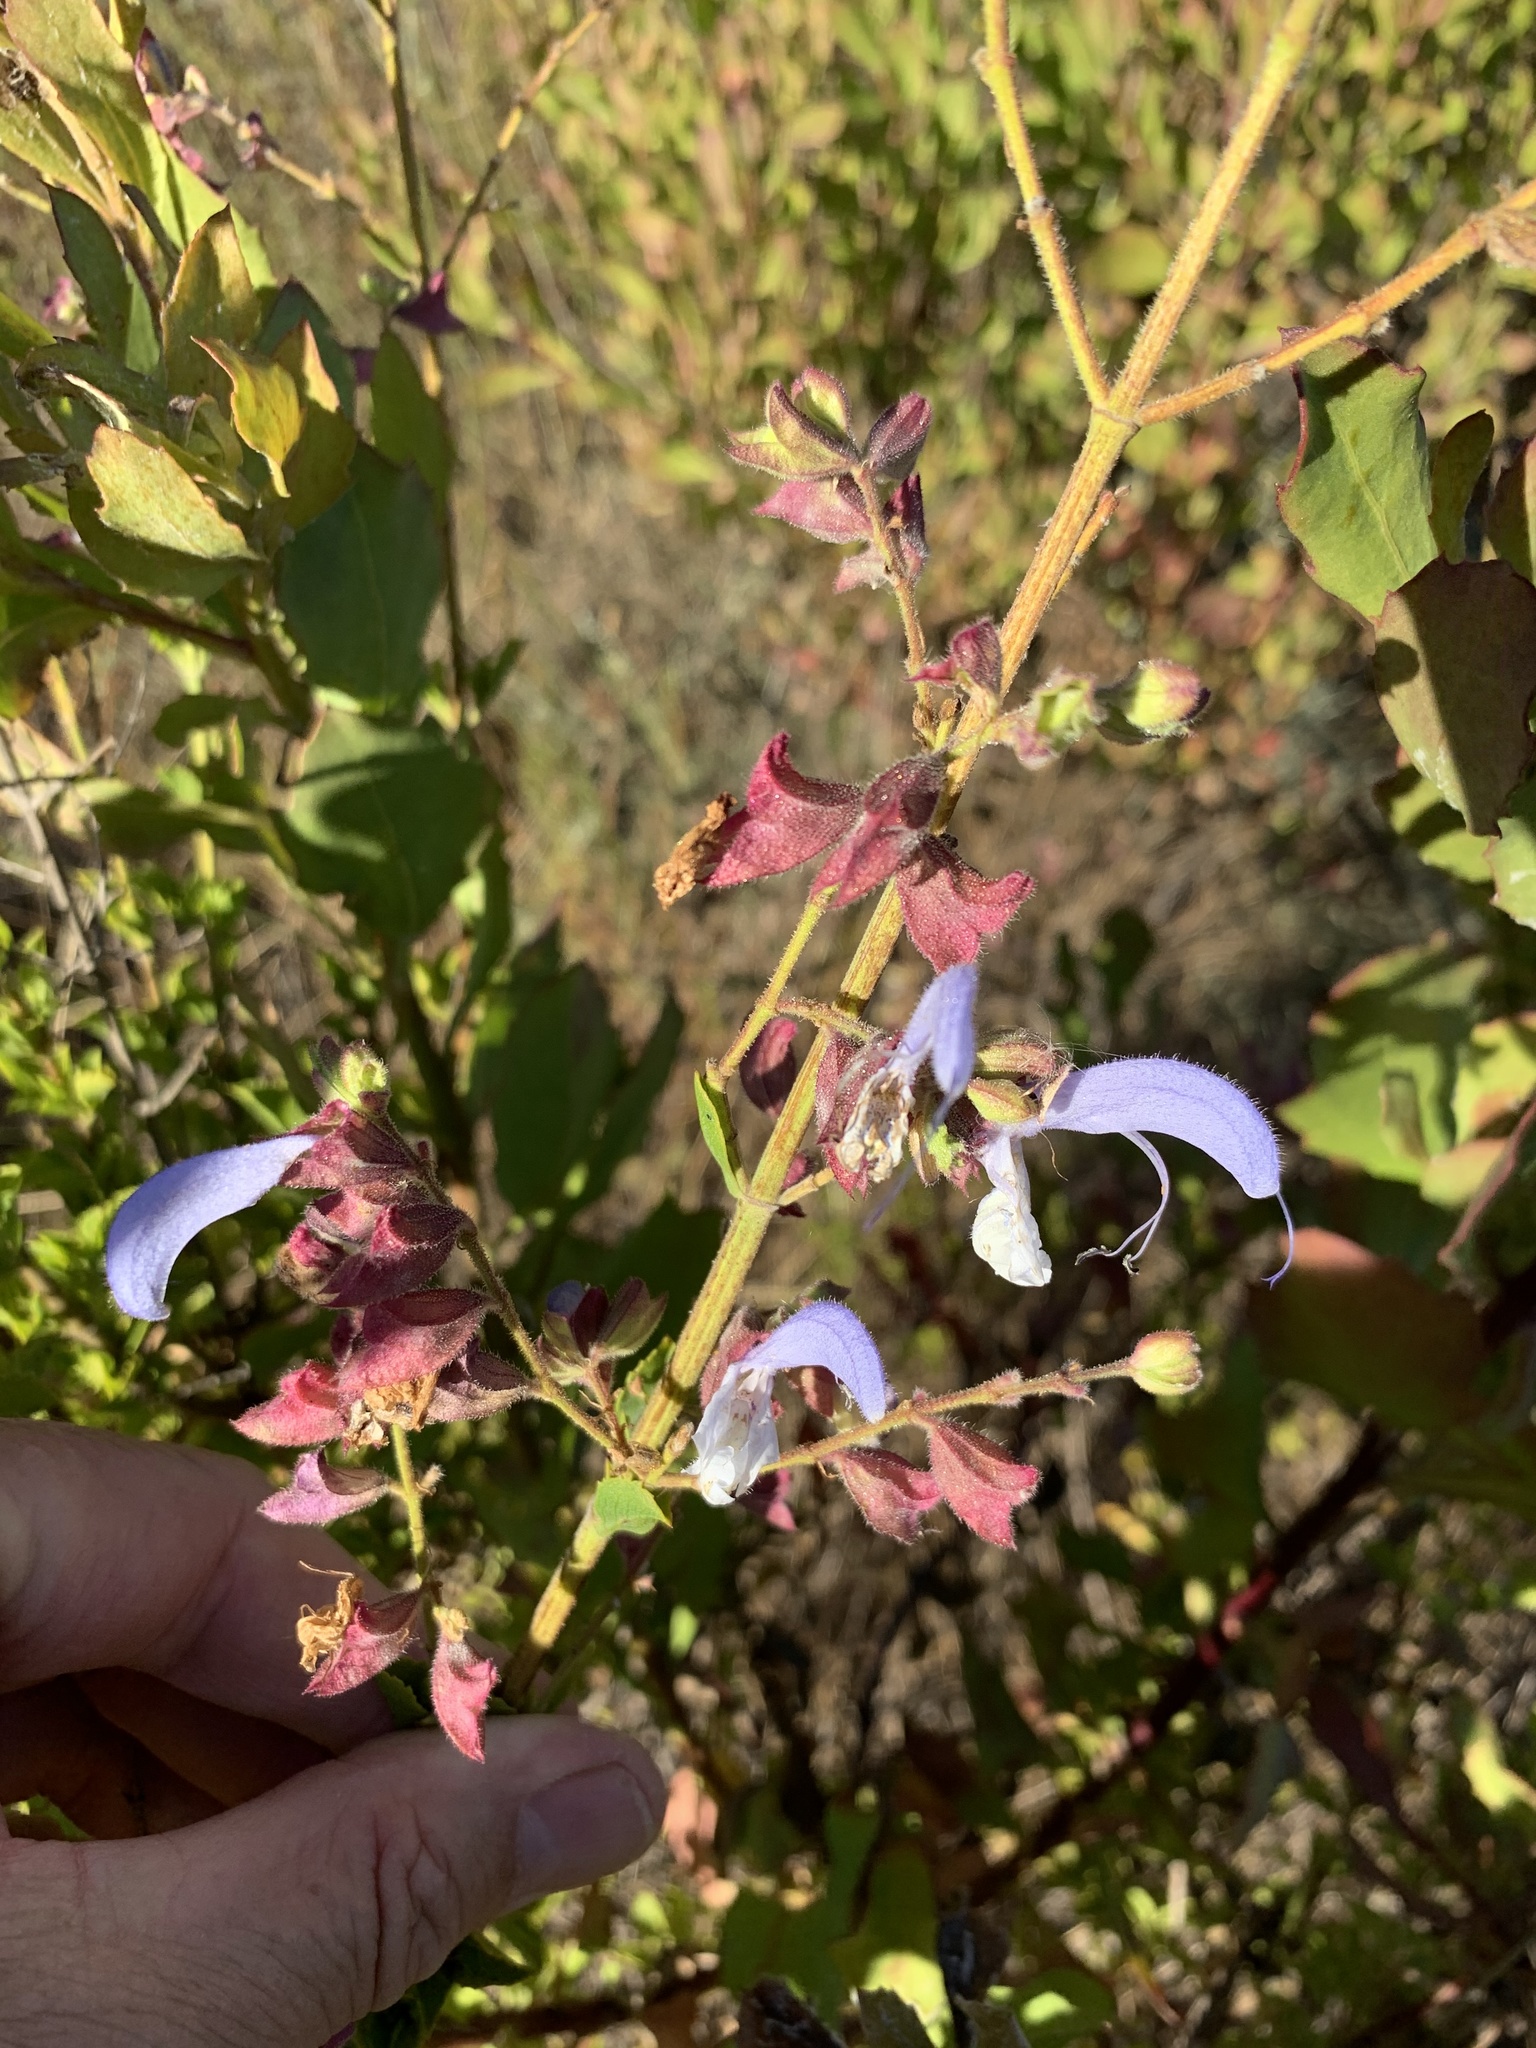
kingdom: Plantae
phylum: Tracheophyta
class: Magnoliopsida
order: Lamiales
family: Lamiaceae
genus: Salvia
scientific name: Salvia chamelaeagnea
